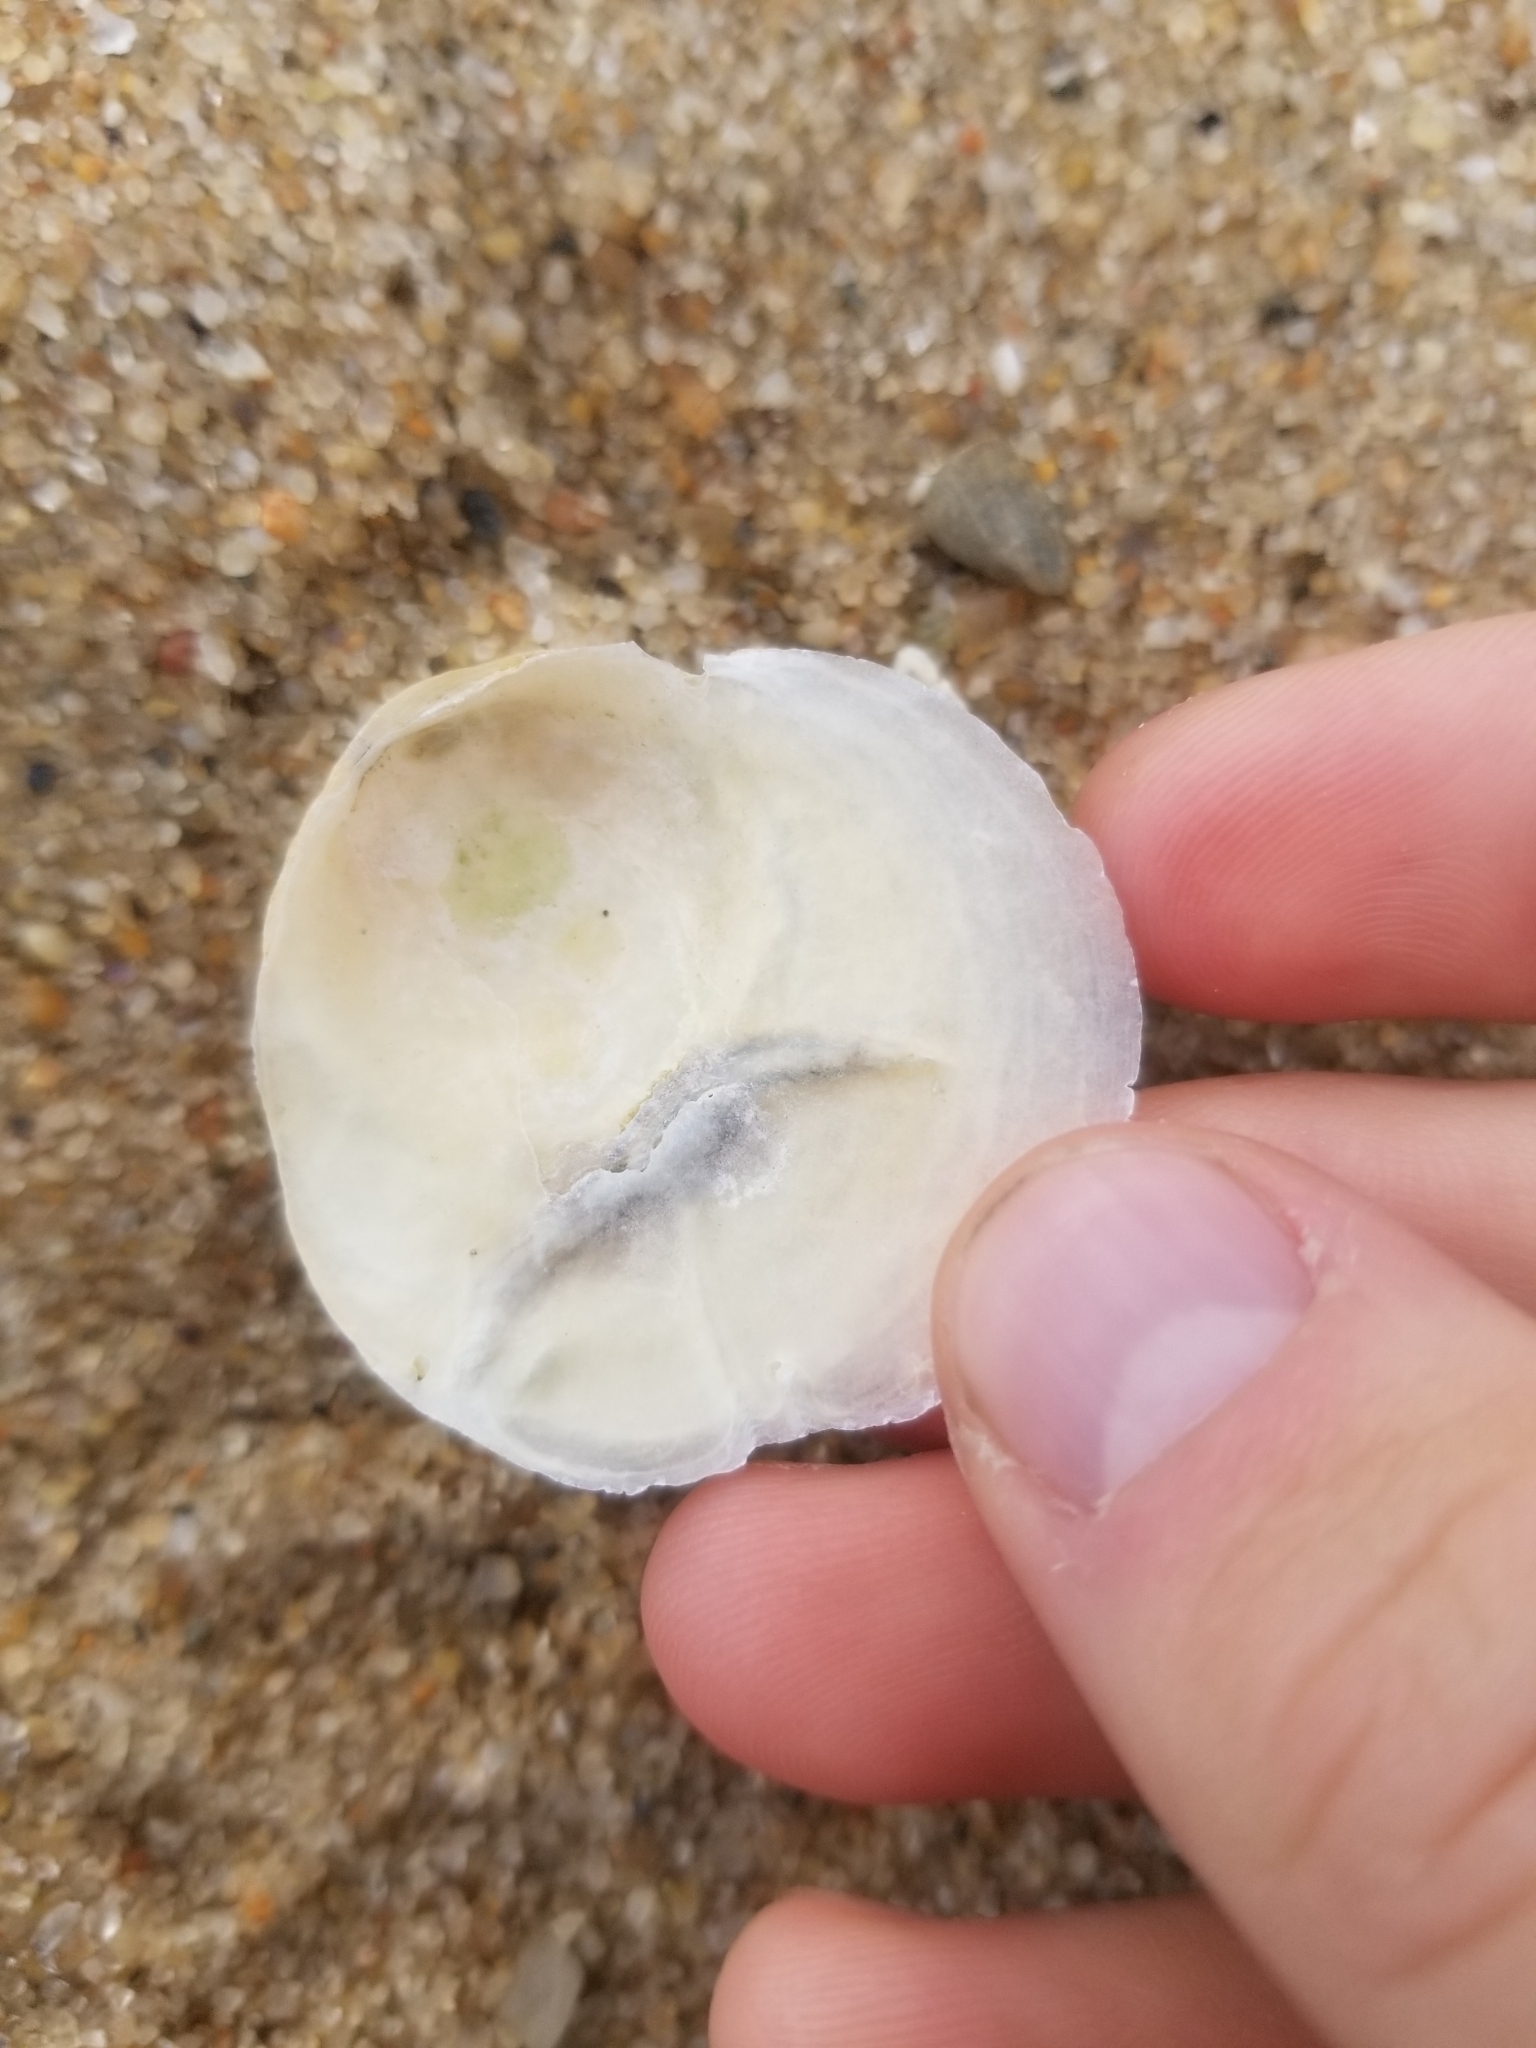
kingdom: Animalia
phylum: Mollusca
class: Bivalvia
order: Pectinida
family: Anomiidae
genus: Anomia
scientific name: Anomia simplex
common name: Common jingle shell
